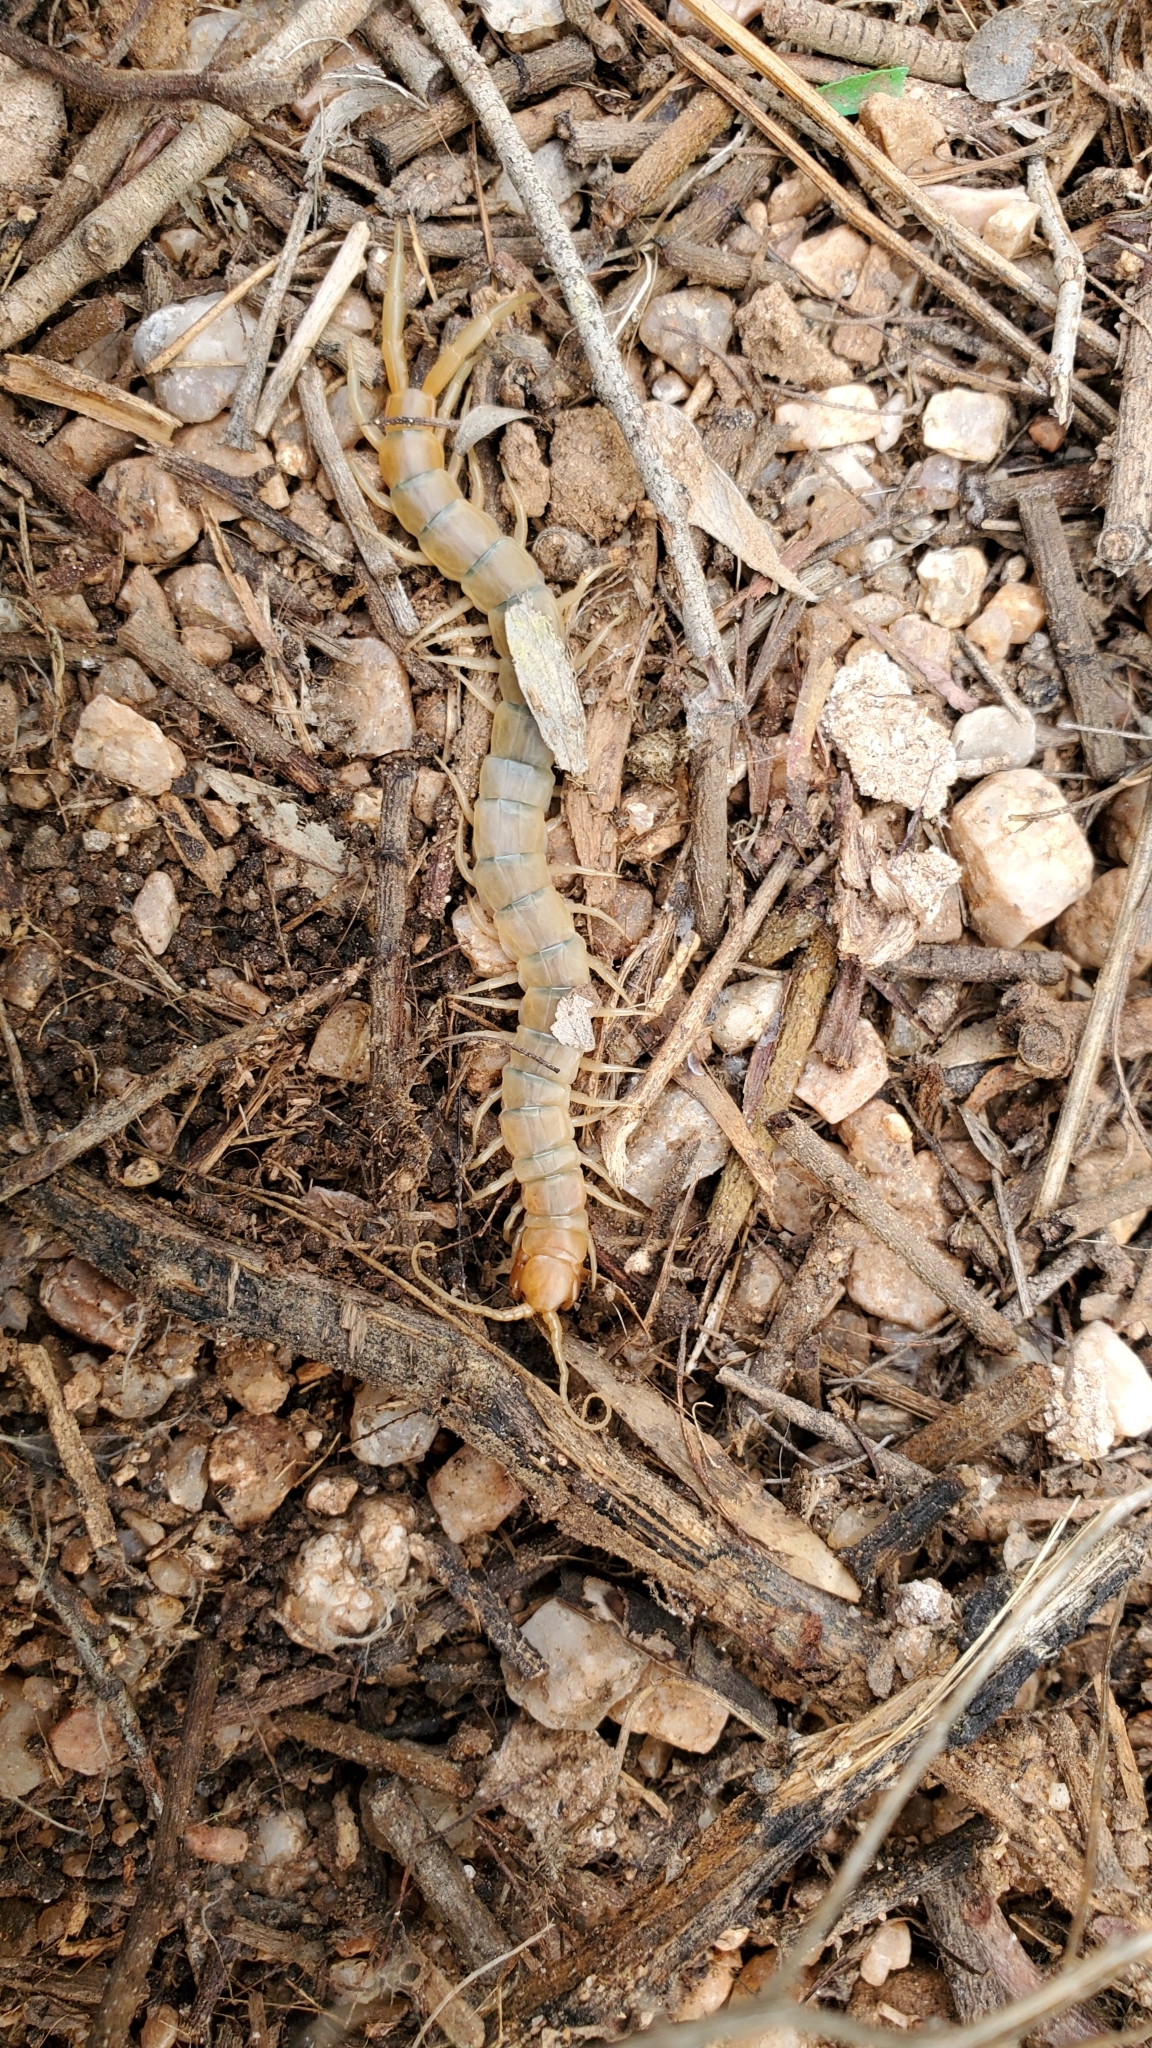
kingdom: Animalia
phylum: Arthropoda
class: Chilopoda
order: Scolopendromorpha
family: Scolopendridae
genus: Scolopendra
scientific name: Scolopendra polymorpha
